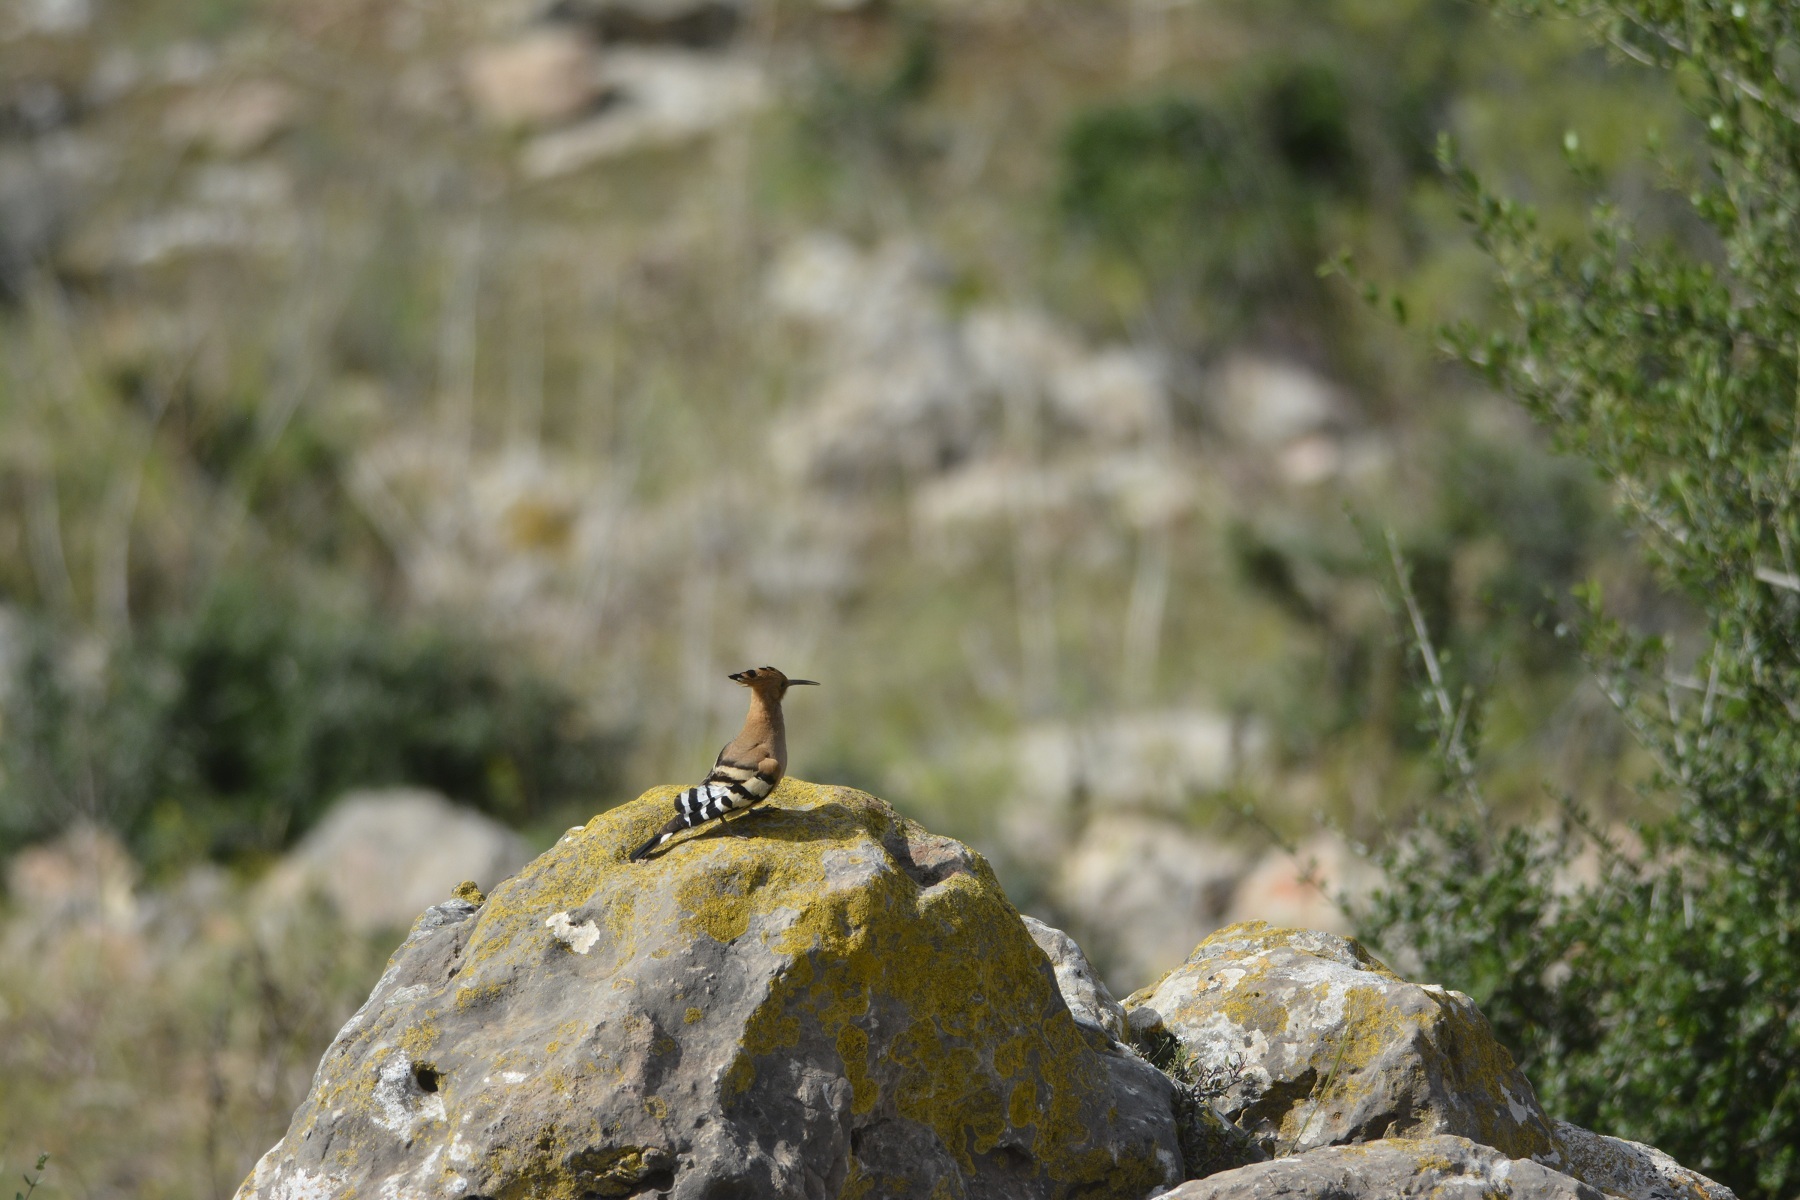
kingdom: Animalia
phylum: Chordata
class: Aves
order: Bucerotiformes
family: Upupidae
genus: Upupa
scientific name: Upupa epops
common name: Eurasian hoopoe
